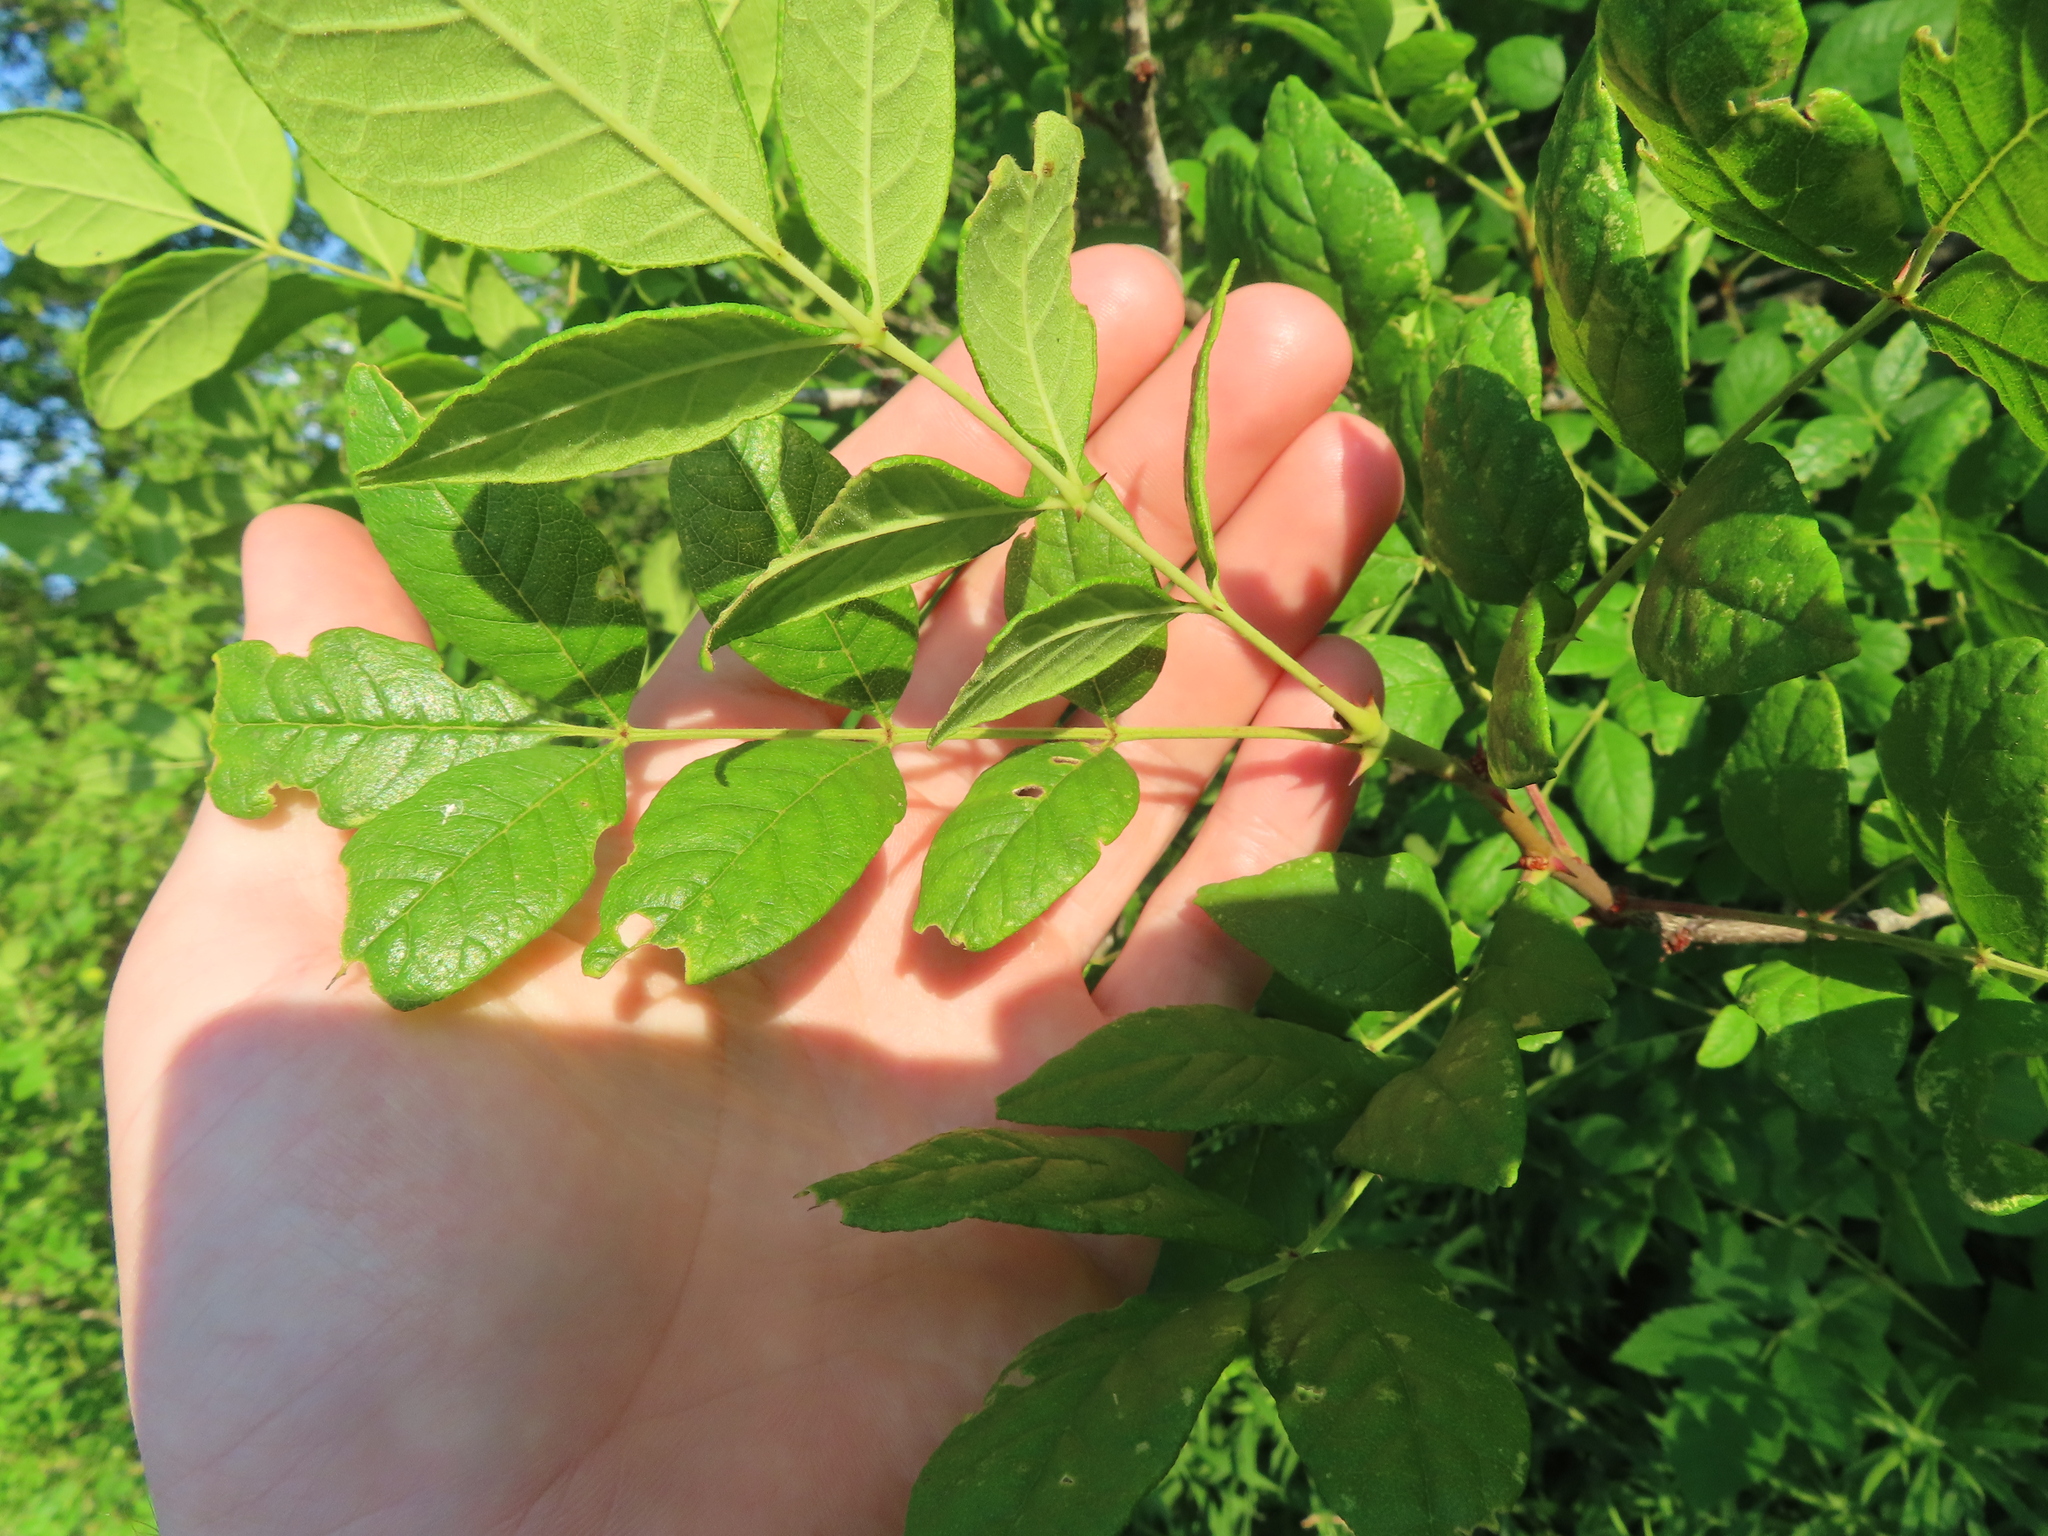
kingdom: Plantae
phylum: Tracheophyta
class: Magnoliopsida
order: Sapindales
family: Rutaceae
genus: Zanthoxylum
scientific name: Zanthoxylum americanum
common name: Northern prickly-ash
